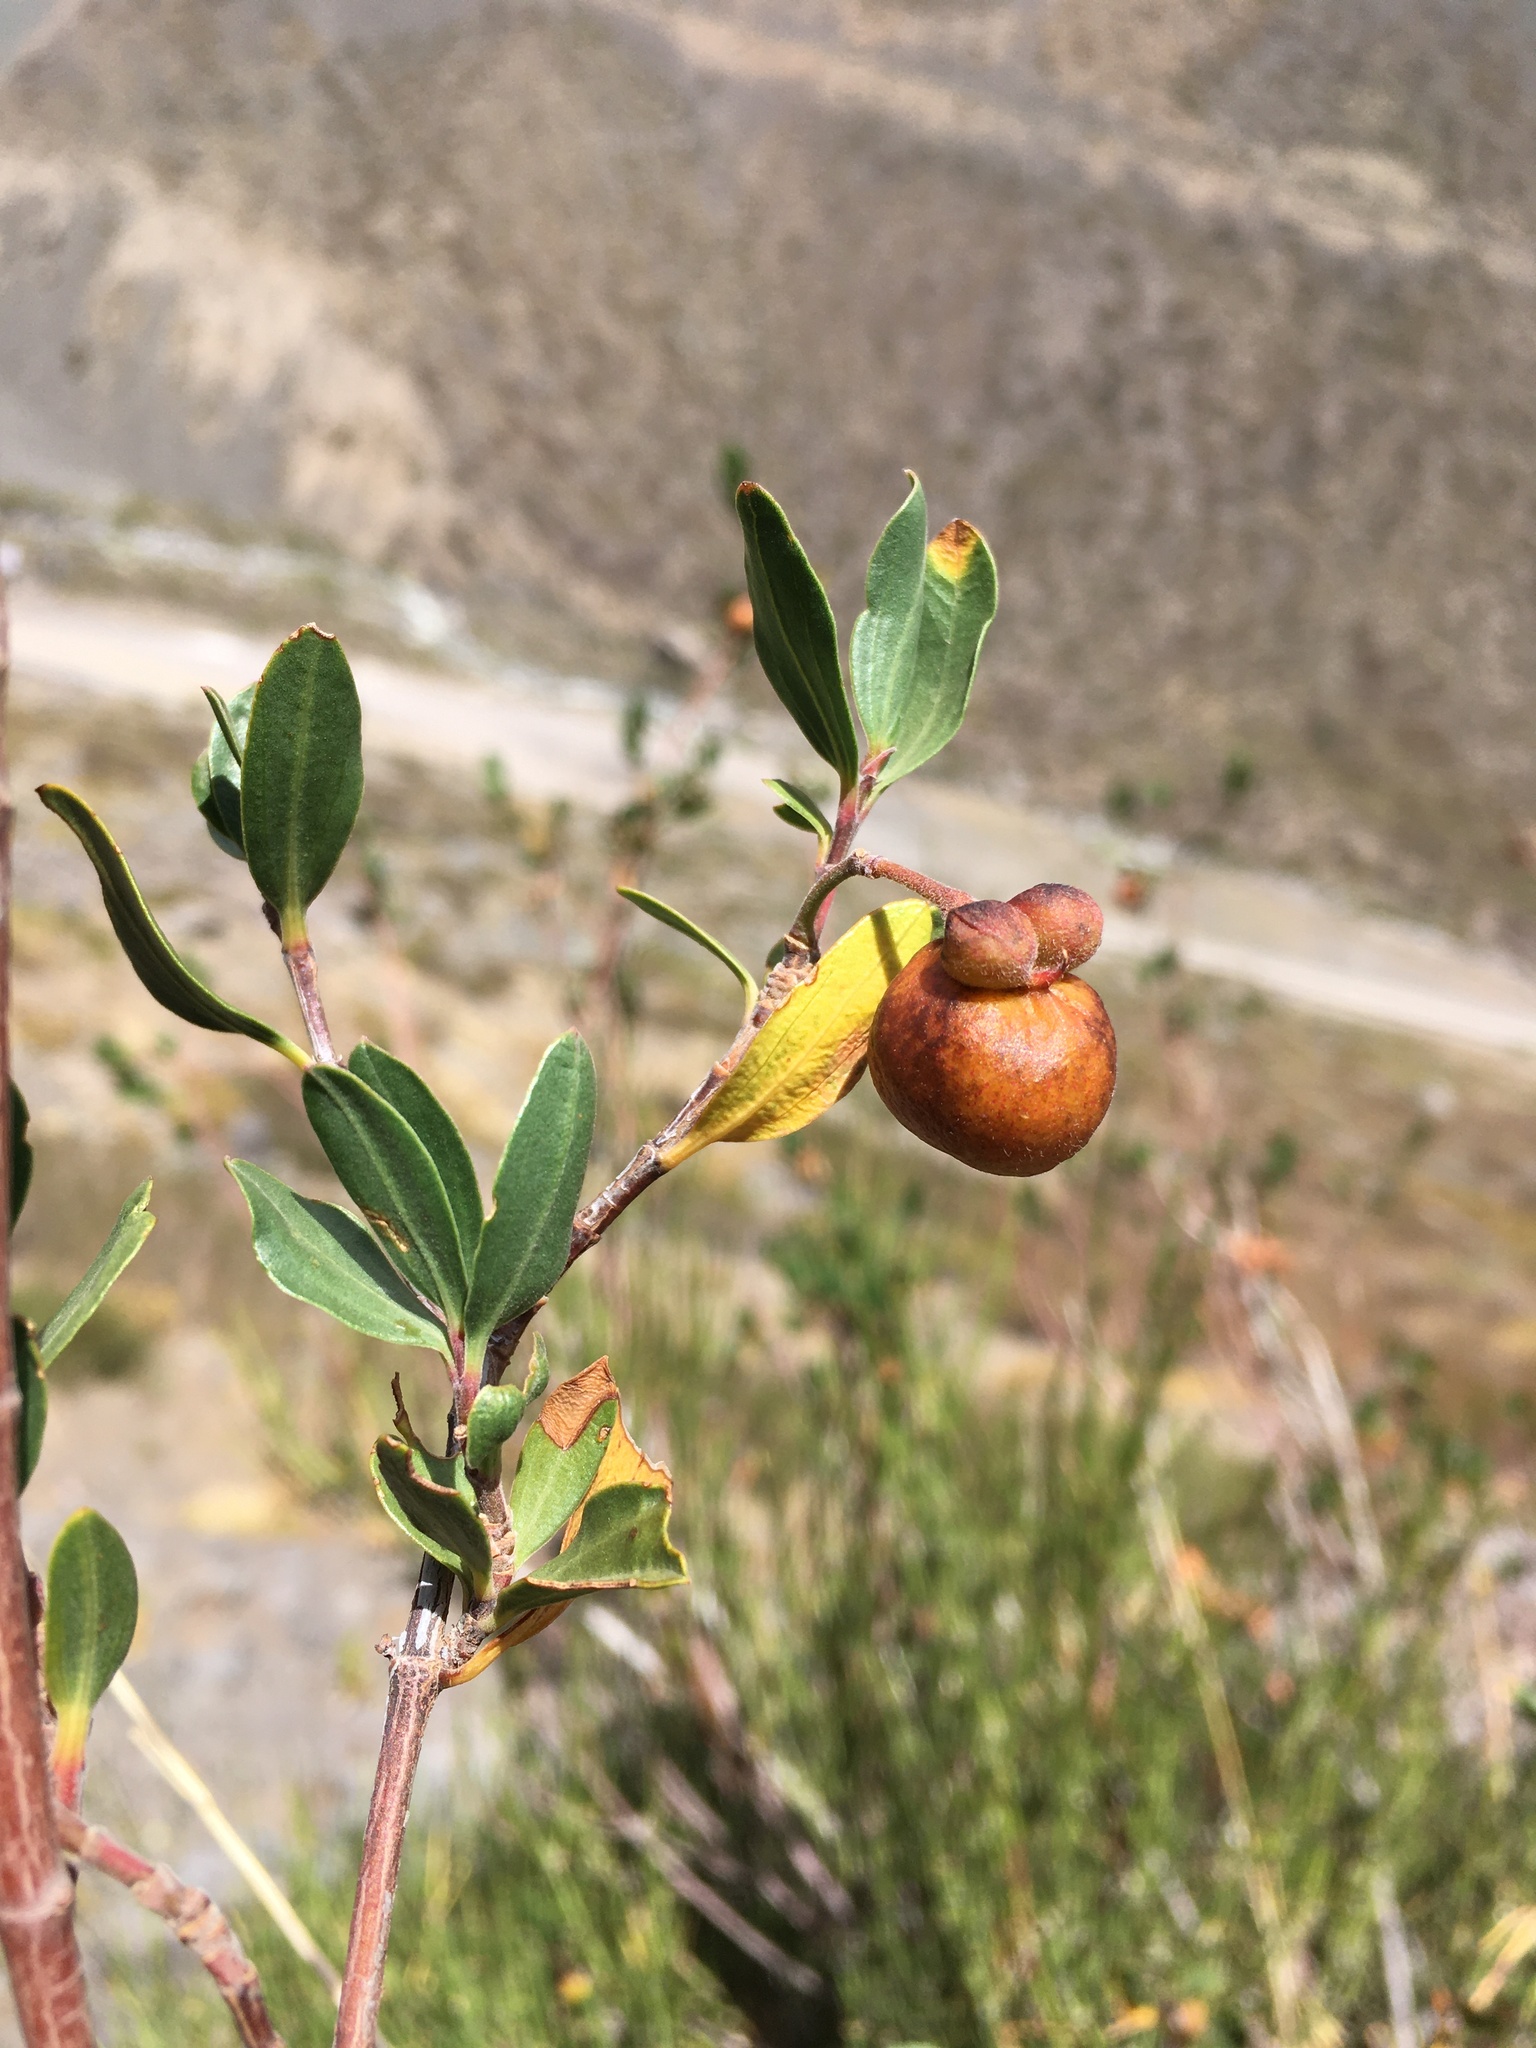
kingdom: Plantae
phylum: Tracheophyta
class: Magnoliopsida
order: Sapindales
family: Sapindaceae
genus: Guindilia
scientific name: Guindilia trinervis
